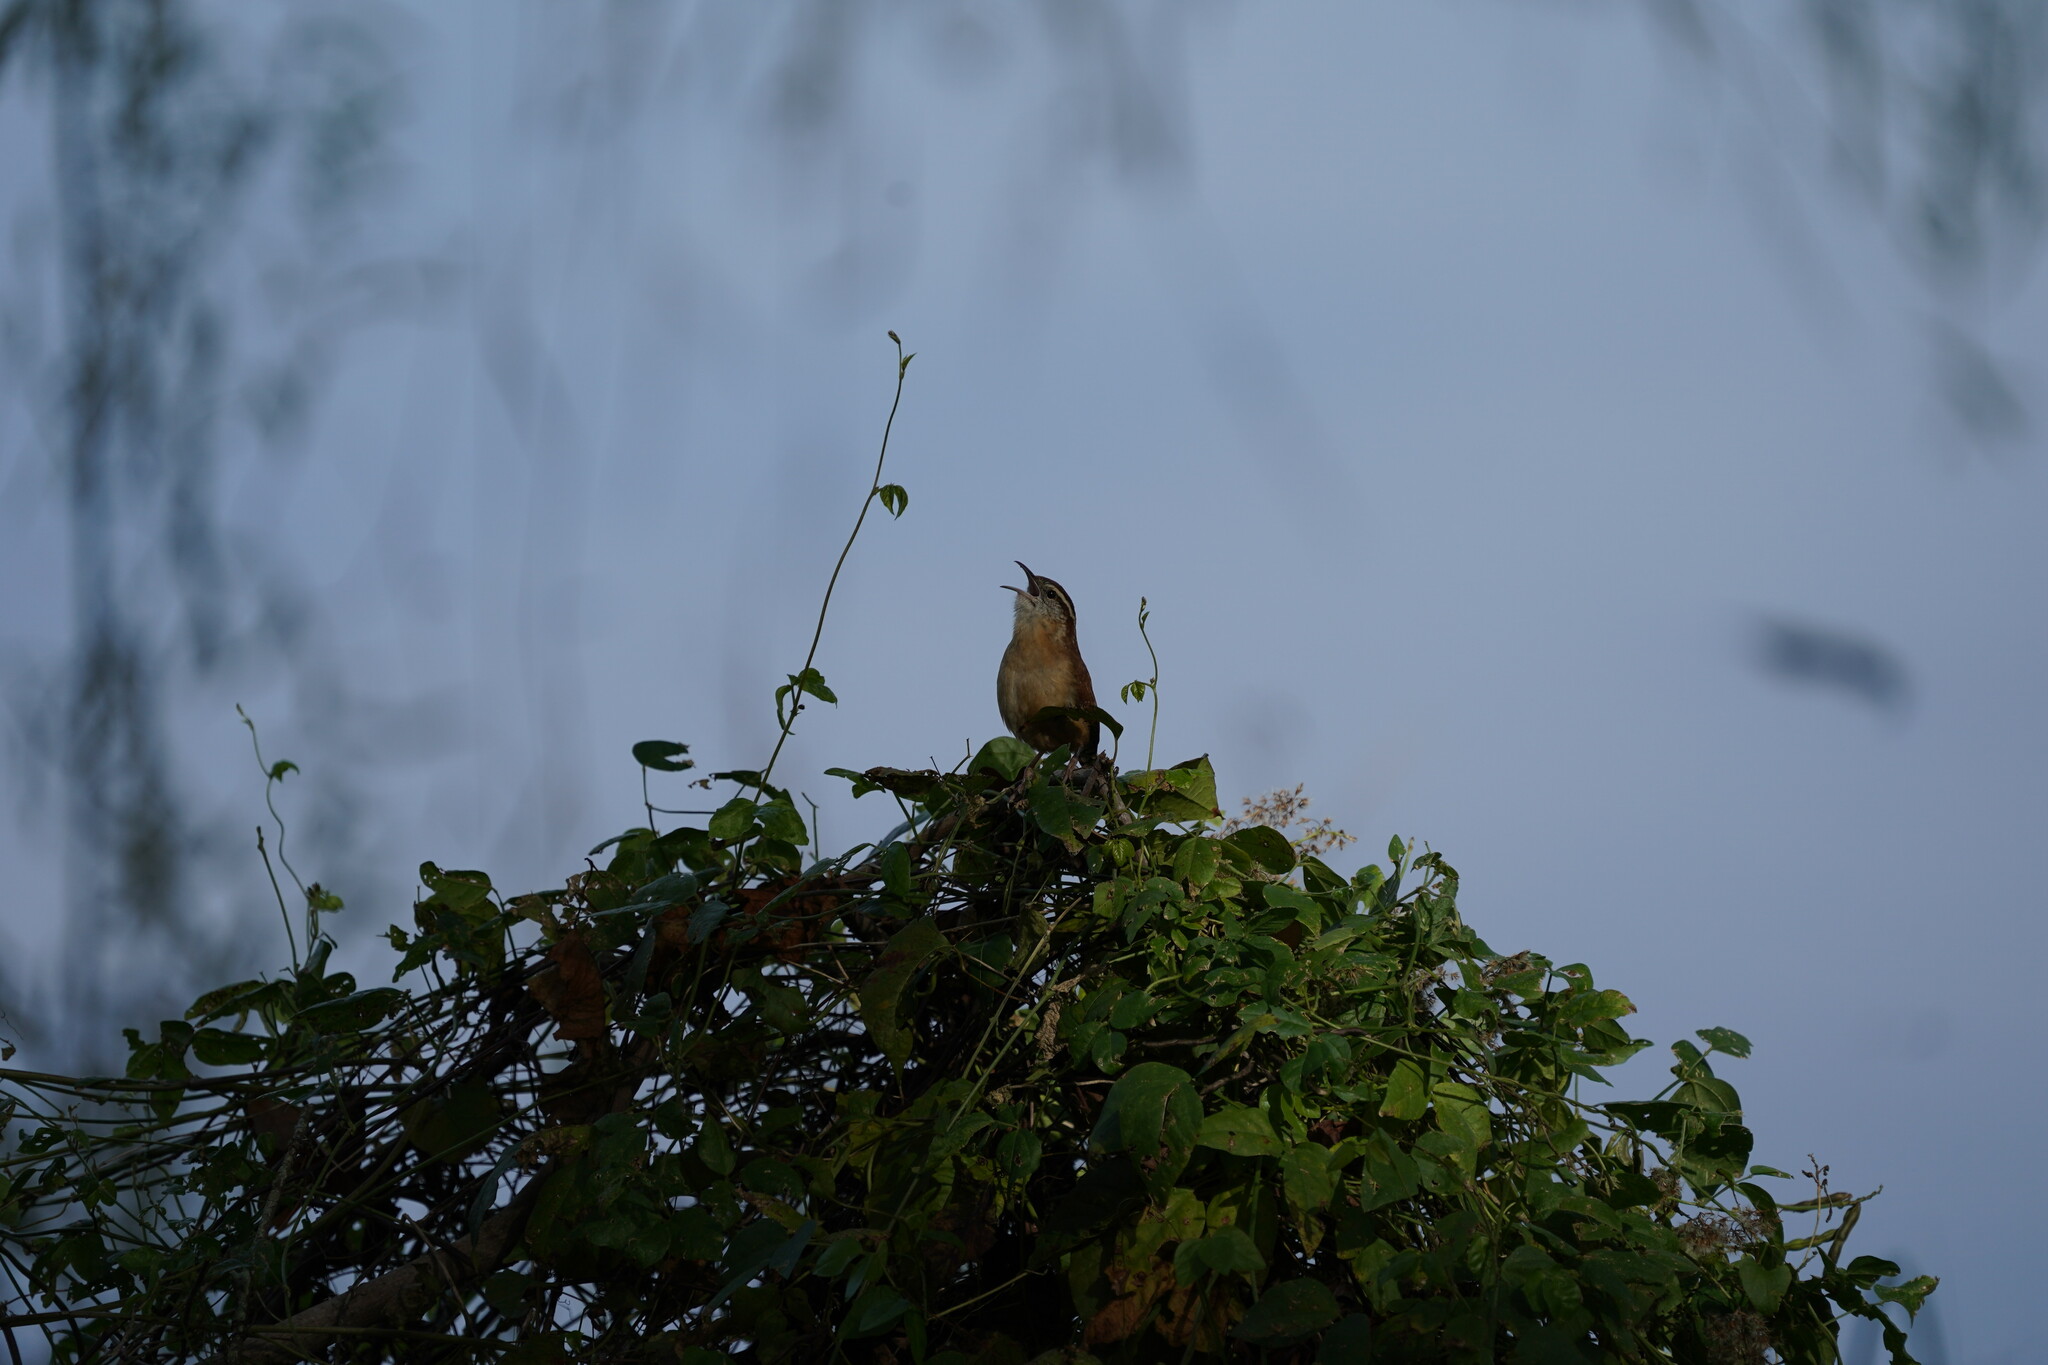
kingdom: Animalia
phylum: Chordata
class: Aves
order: Passeriformes
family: Troglodytidae
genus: Thryothorus
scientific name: Thryothorus ludovicianus
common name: Carolina wren
